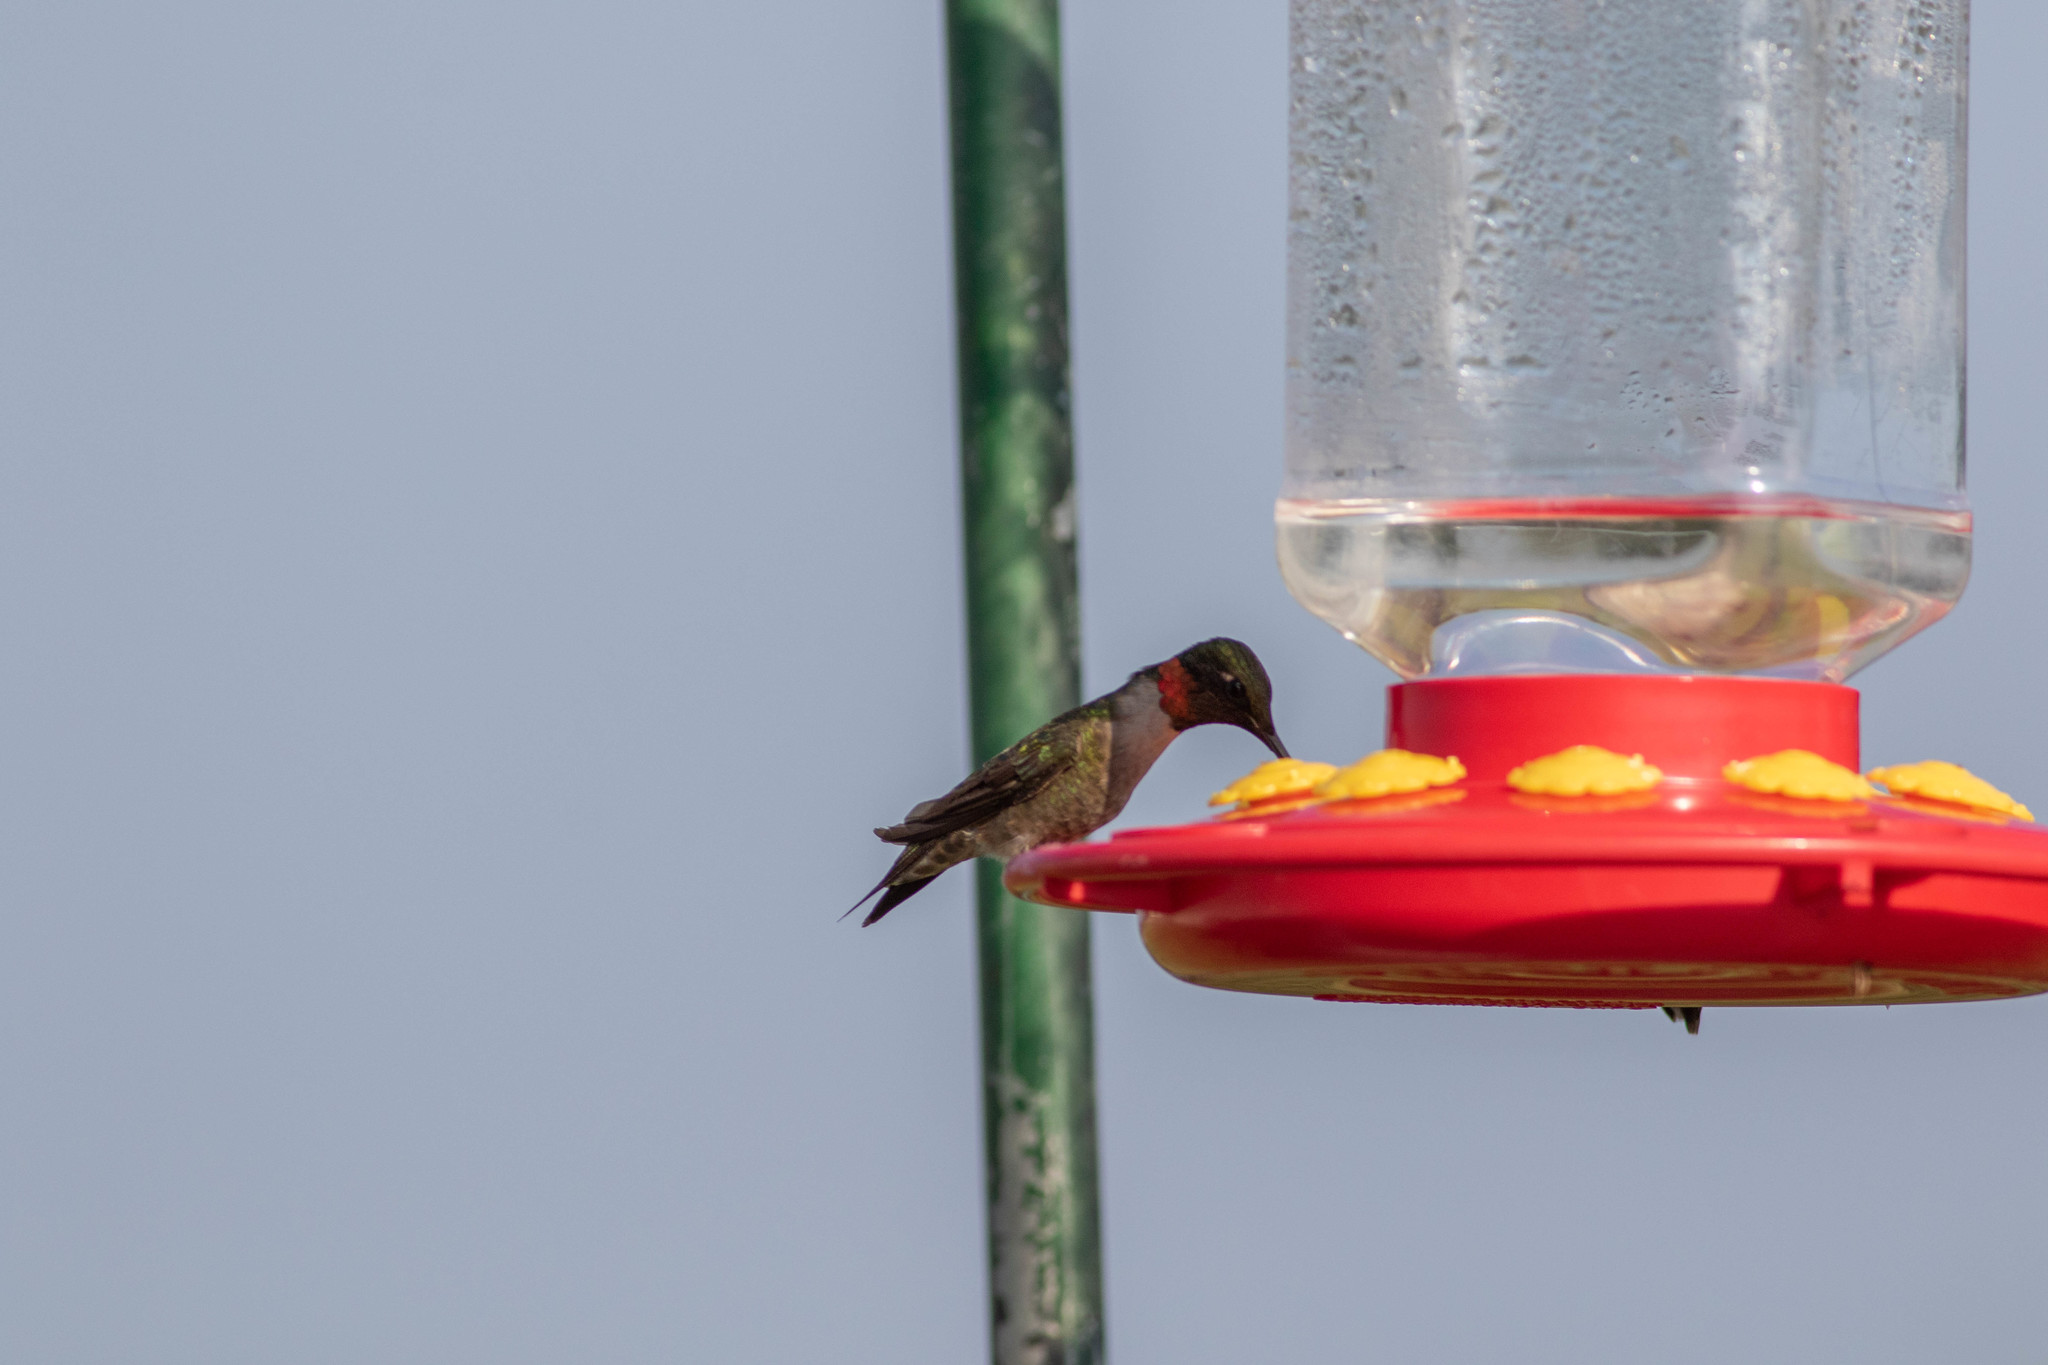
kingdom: Animalia
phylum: Chordata
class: Aves
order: Apodiformes
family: Trochilidae
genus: Archilochus
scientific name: Archilochus colubris
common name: Ruby-throated hummingbird
